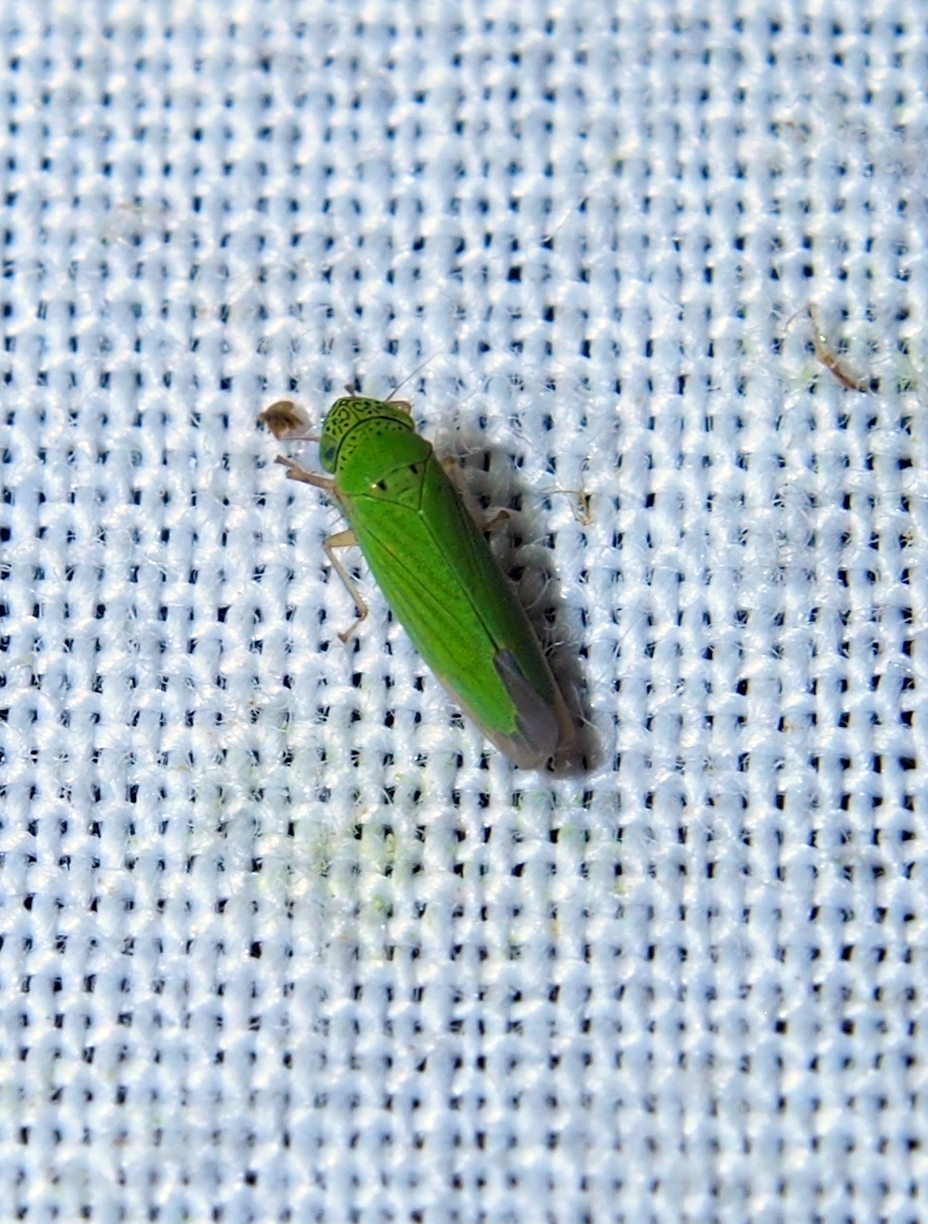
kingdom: Animalia
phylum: Arthropoda
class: Insecta
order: Hemiptera
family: Cicadellidae
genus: Hortensia
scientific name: Hortensia similis
